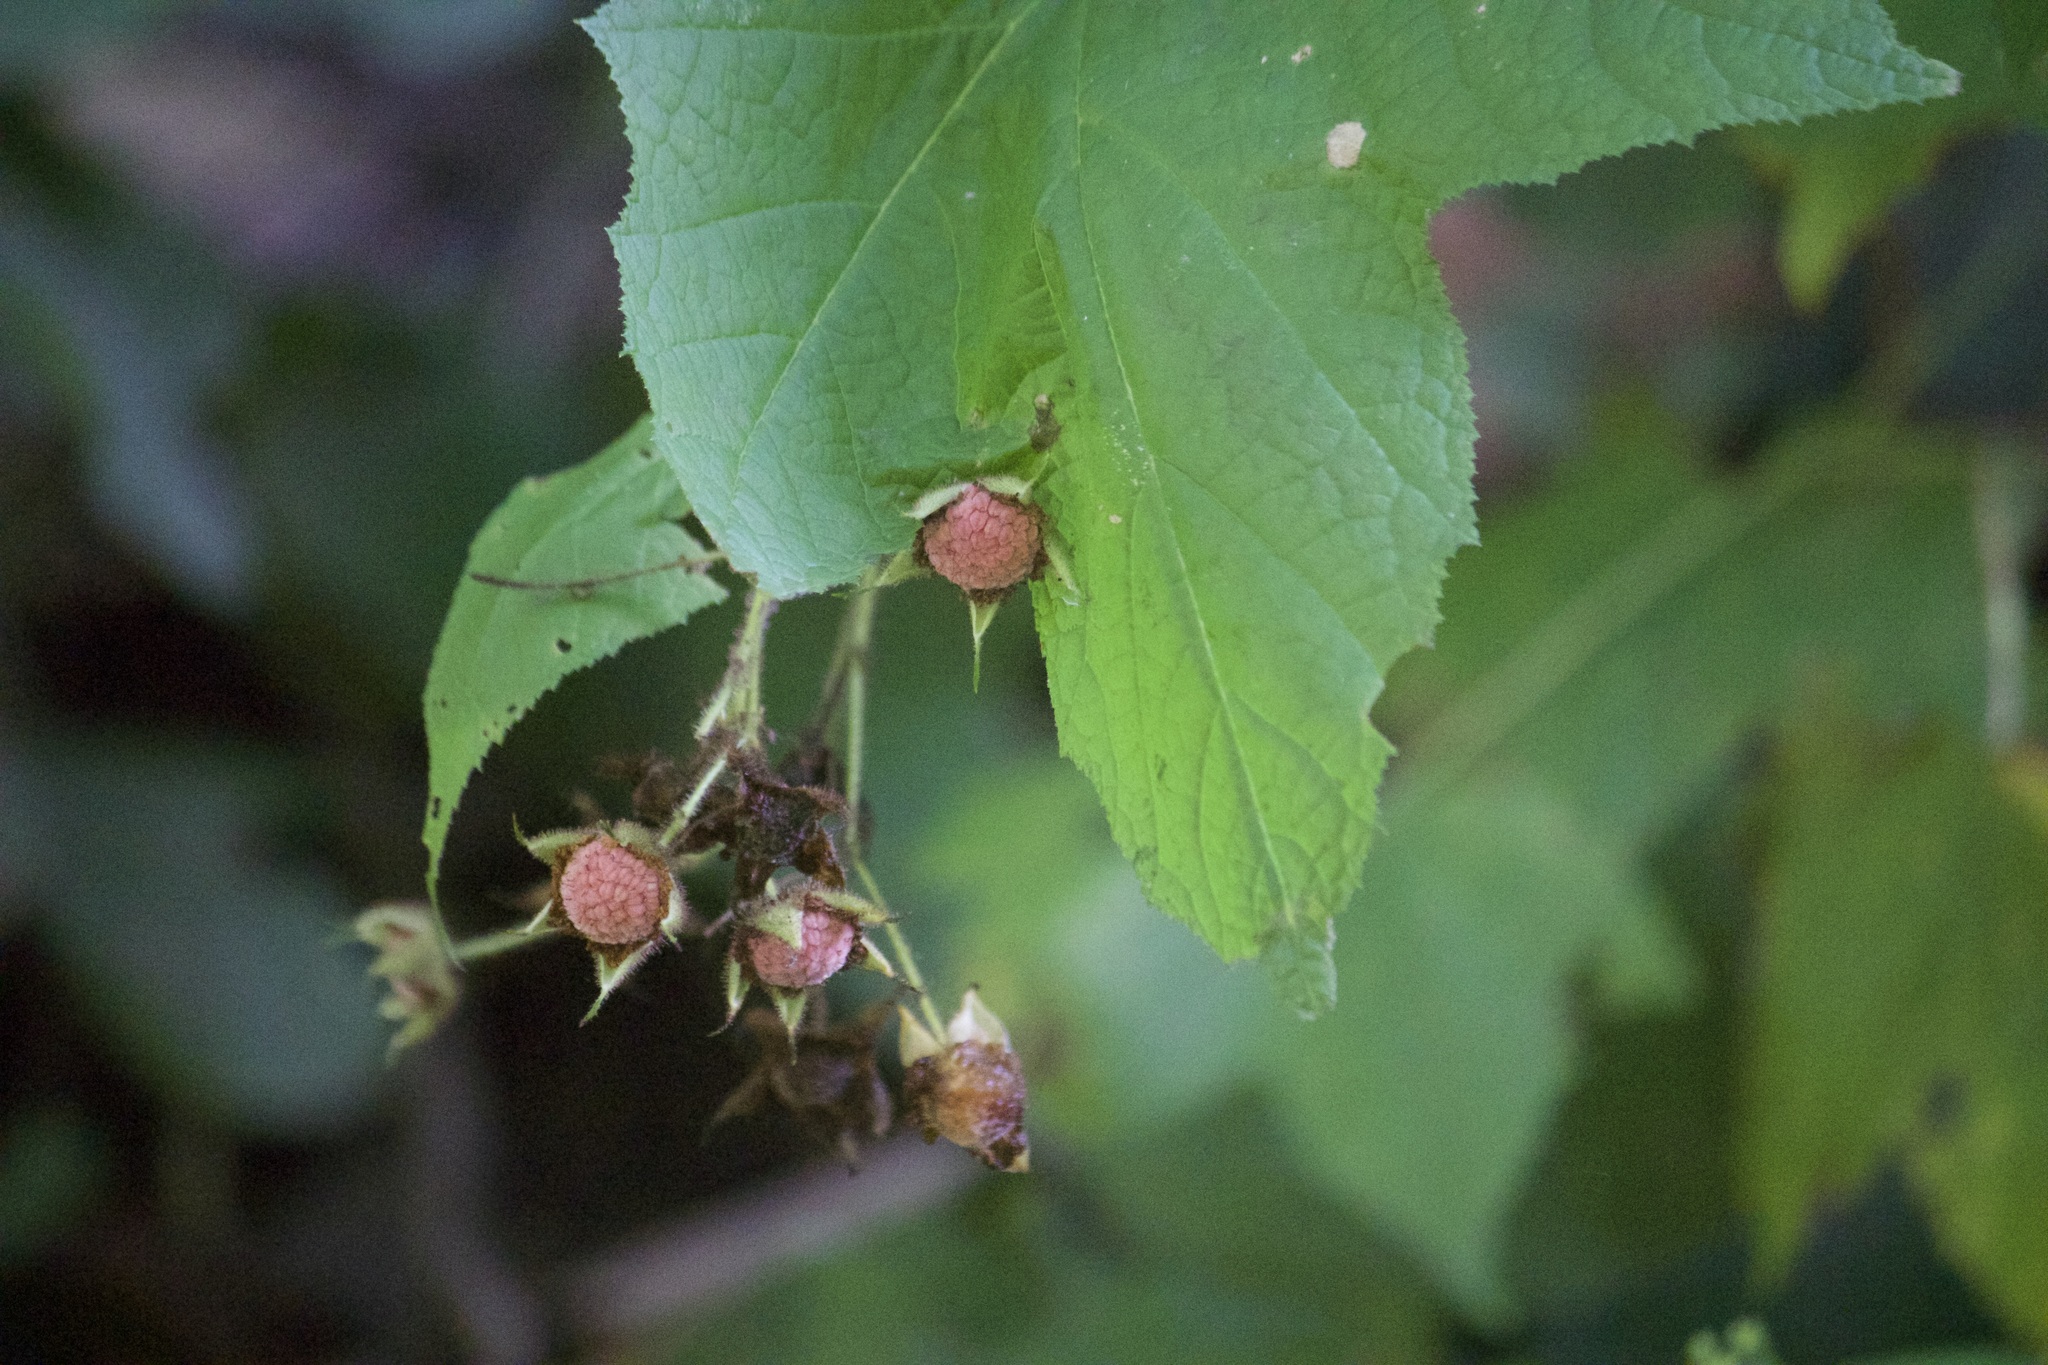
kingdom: Plantae
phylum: Tracheophyta
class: Magnoliopsida
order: Rosales
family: Rosaceae
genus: Rubus
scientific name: Rubus odoratus
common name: Purple-flowered raspberry
